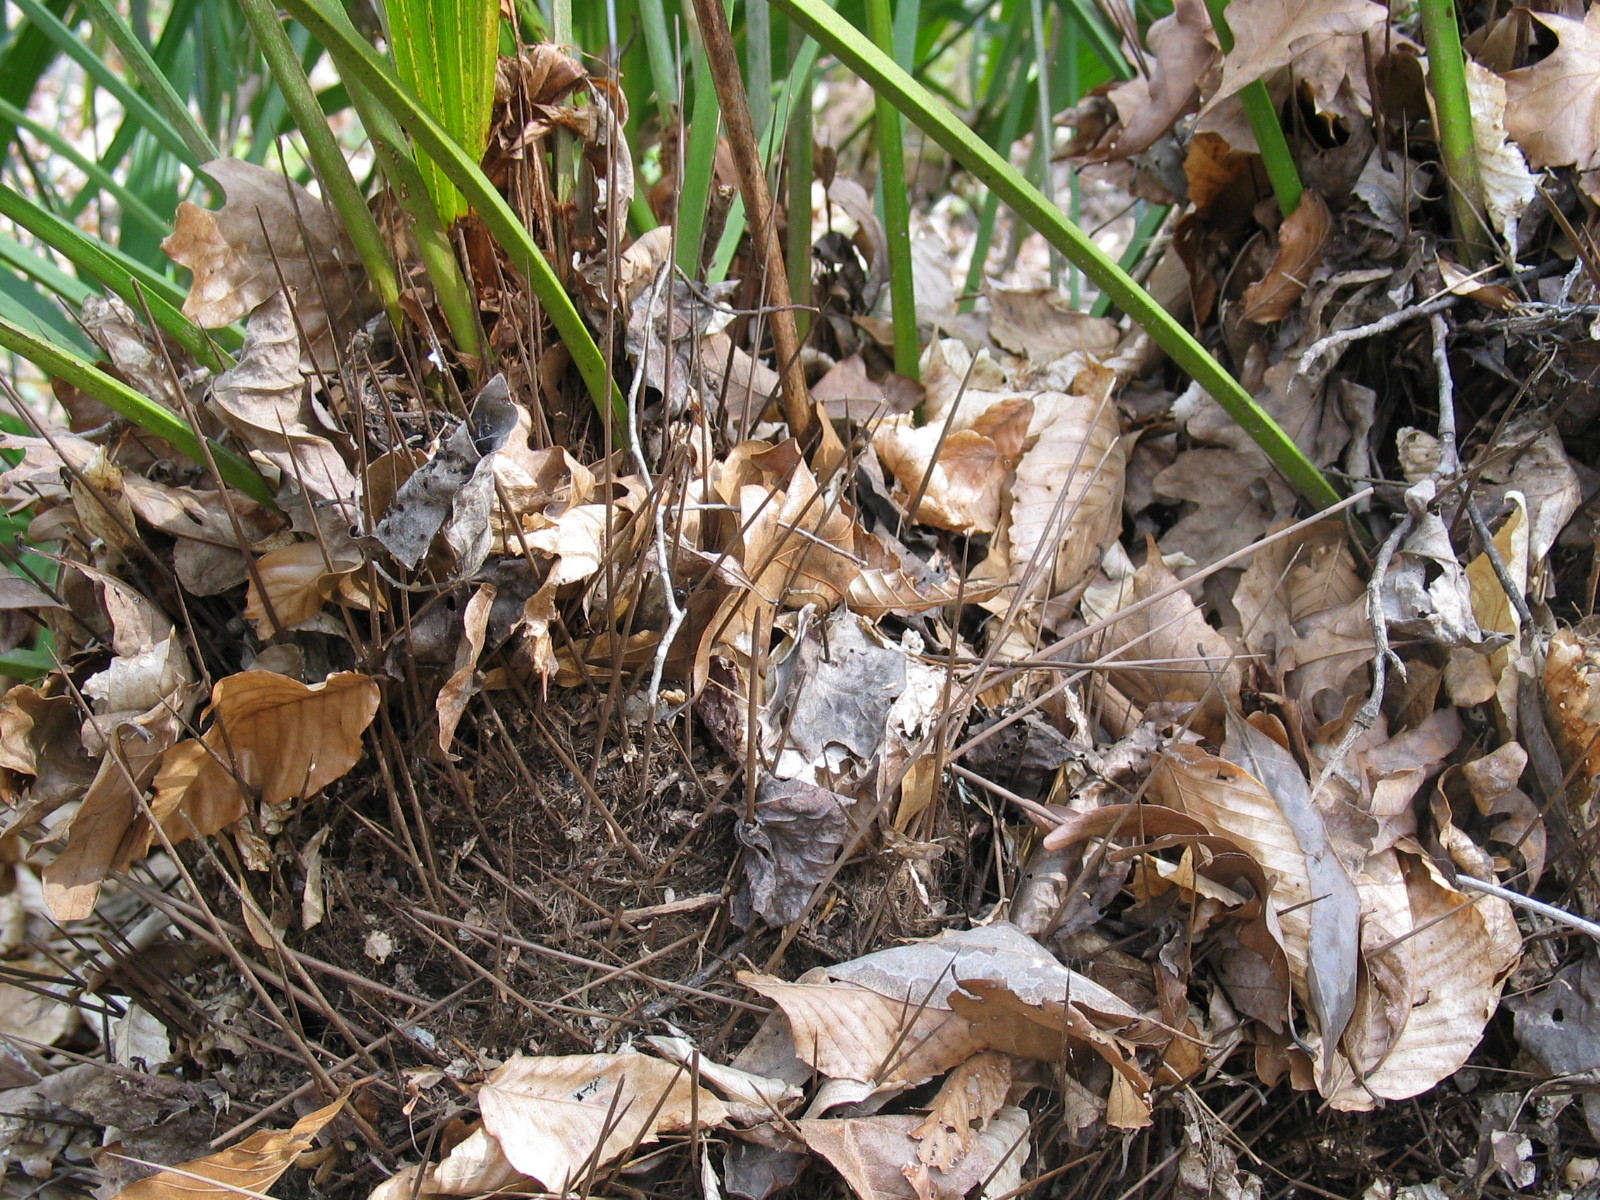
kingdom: Plantae
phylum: Tracheophyta
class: Liliopsida
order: Arecales
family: Arecaceae
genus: Rhapidophyllum
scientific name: Rhapidophyllum hystrix
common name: Porcupine palm
